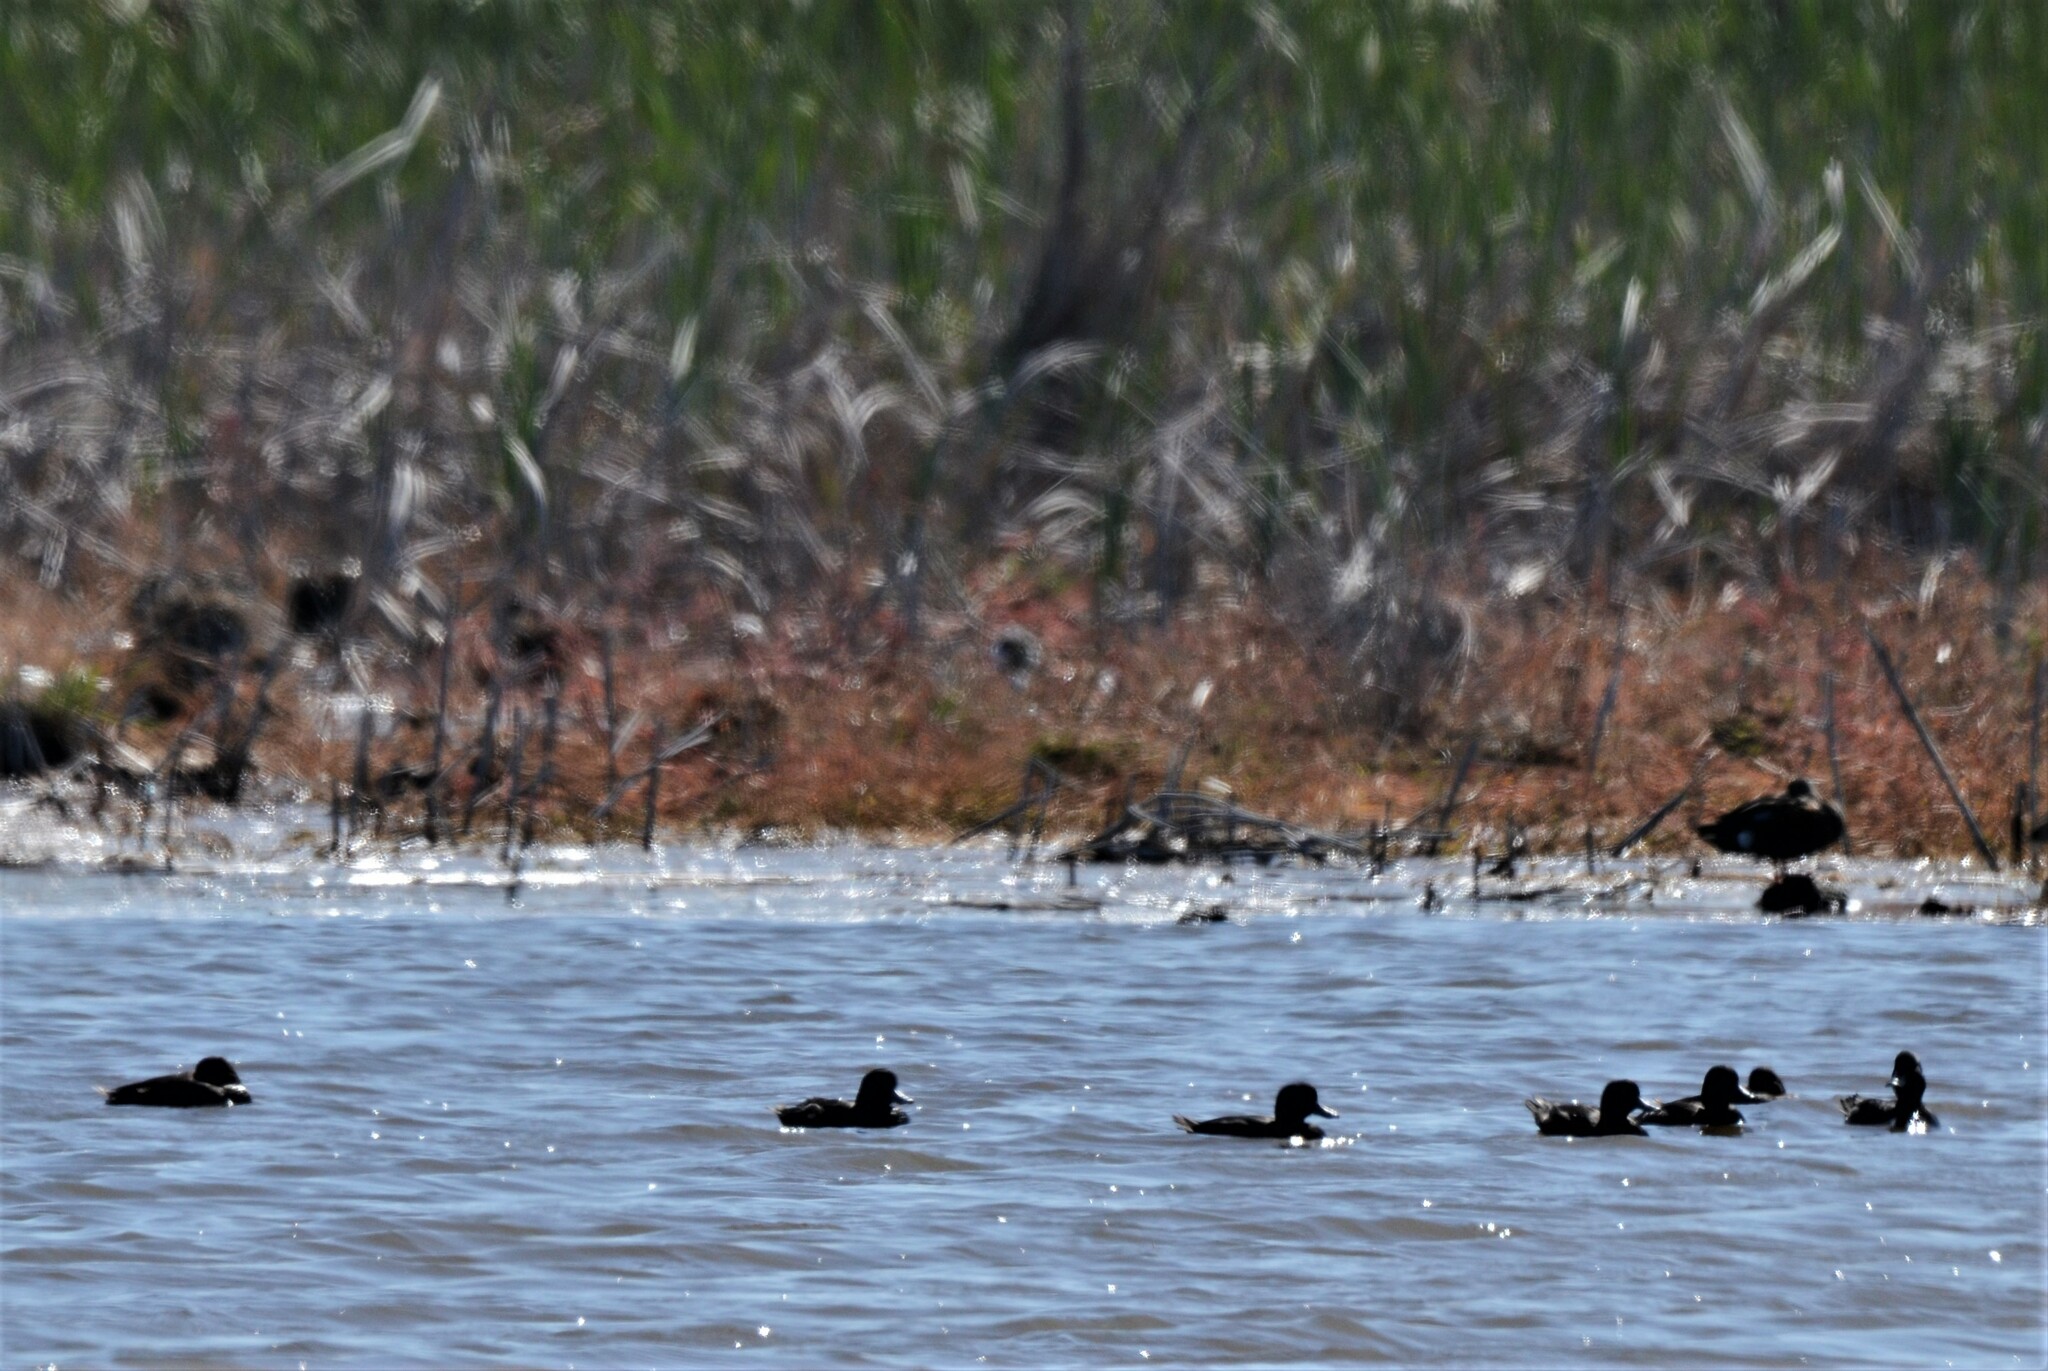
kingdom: Animalia
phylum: Chordata
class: Aves
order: Anseriformes
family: Anatidae
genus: Aythya
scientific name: Aythya novaeseelandiae
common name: New zealand scaup
